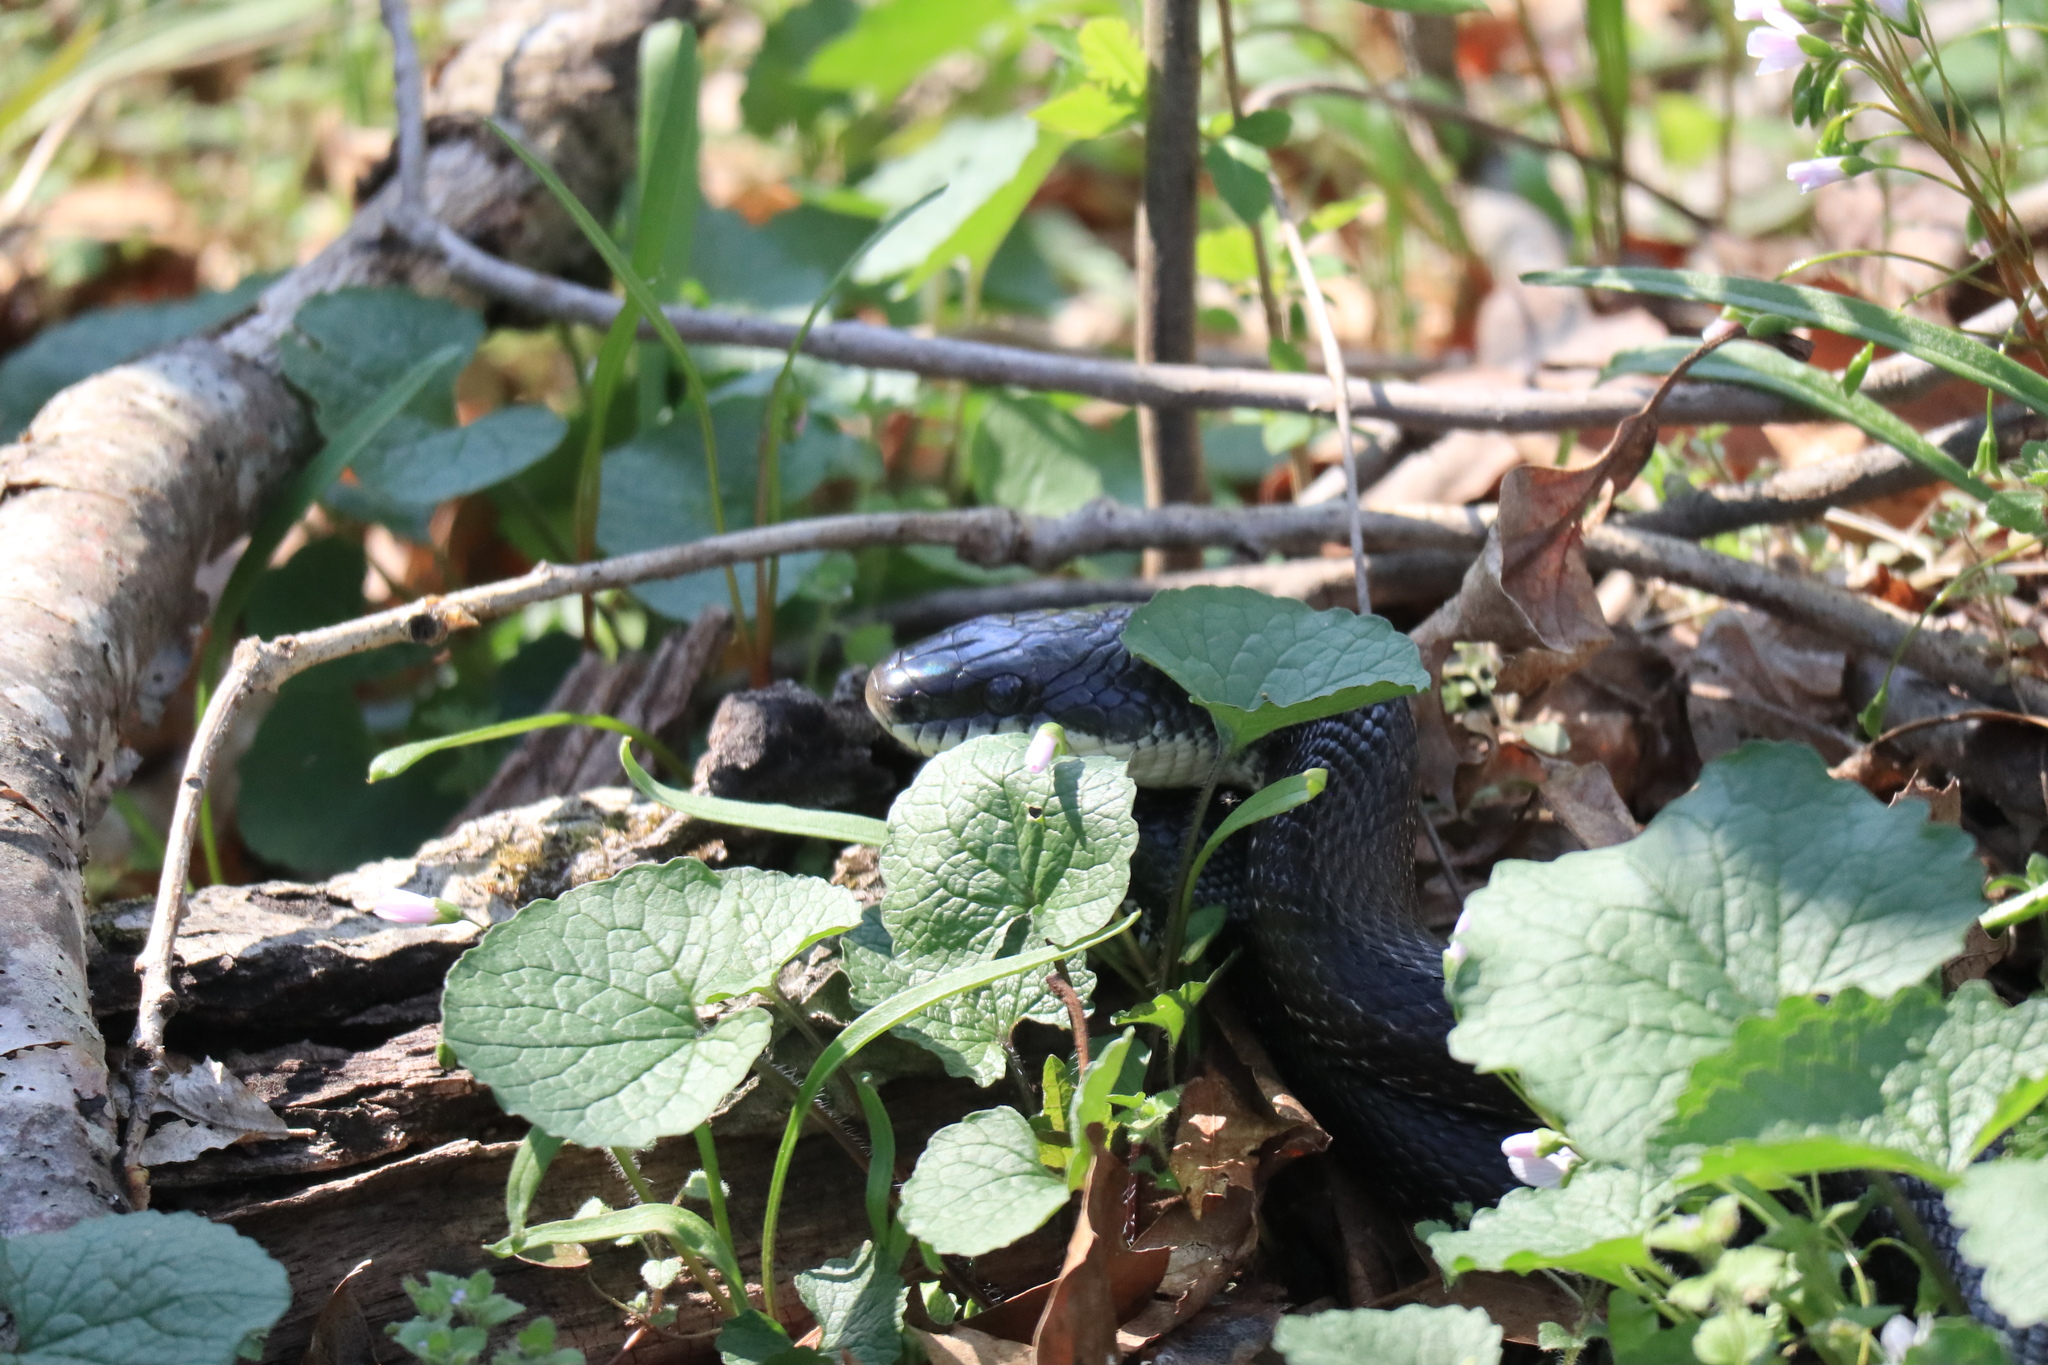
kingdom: Animalia
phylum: Chordata
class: Squamata
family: Colubridae
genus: Pantherophis
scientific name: Pantherophis alleghaniensis
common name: Eastern rat snake
